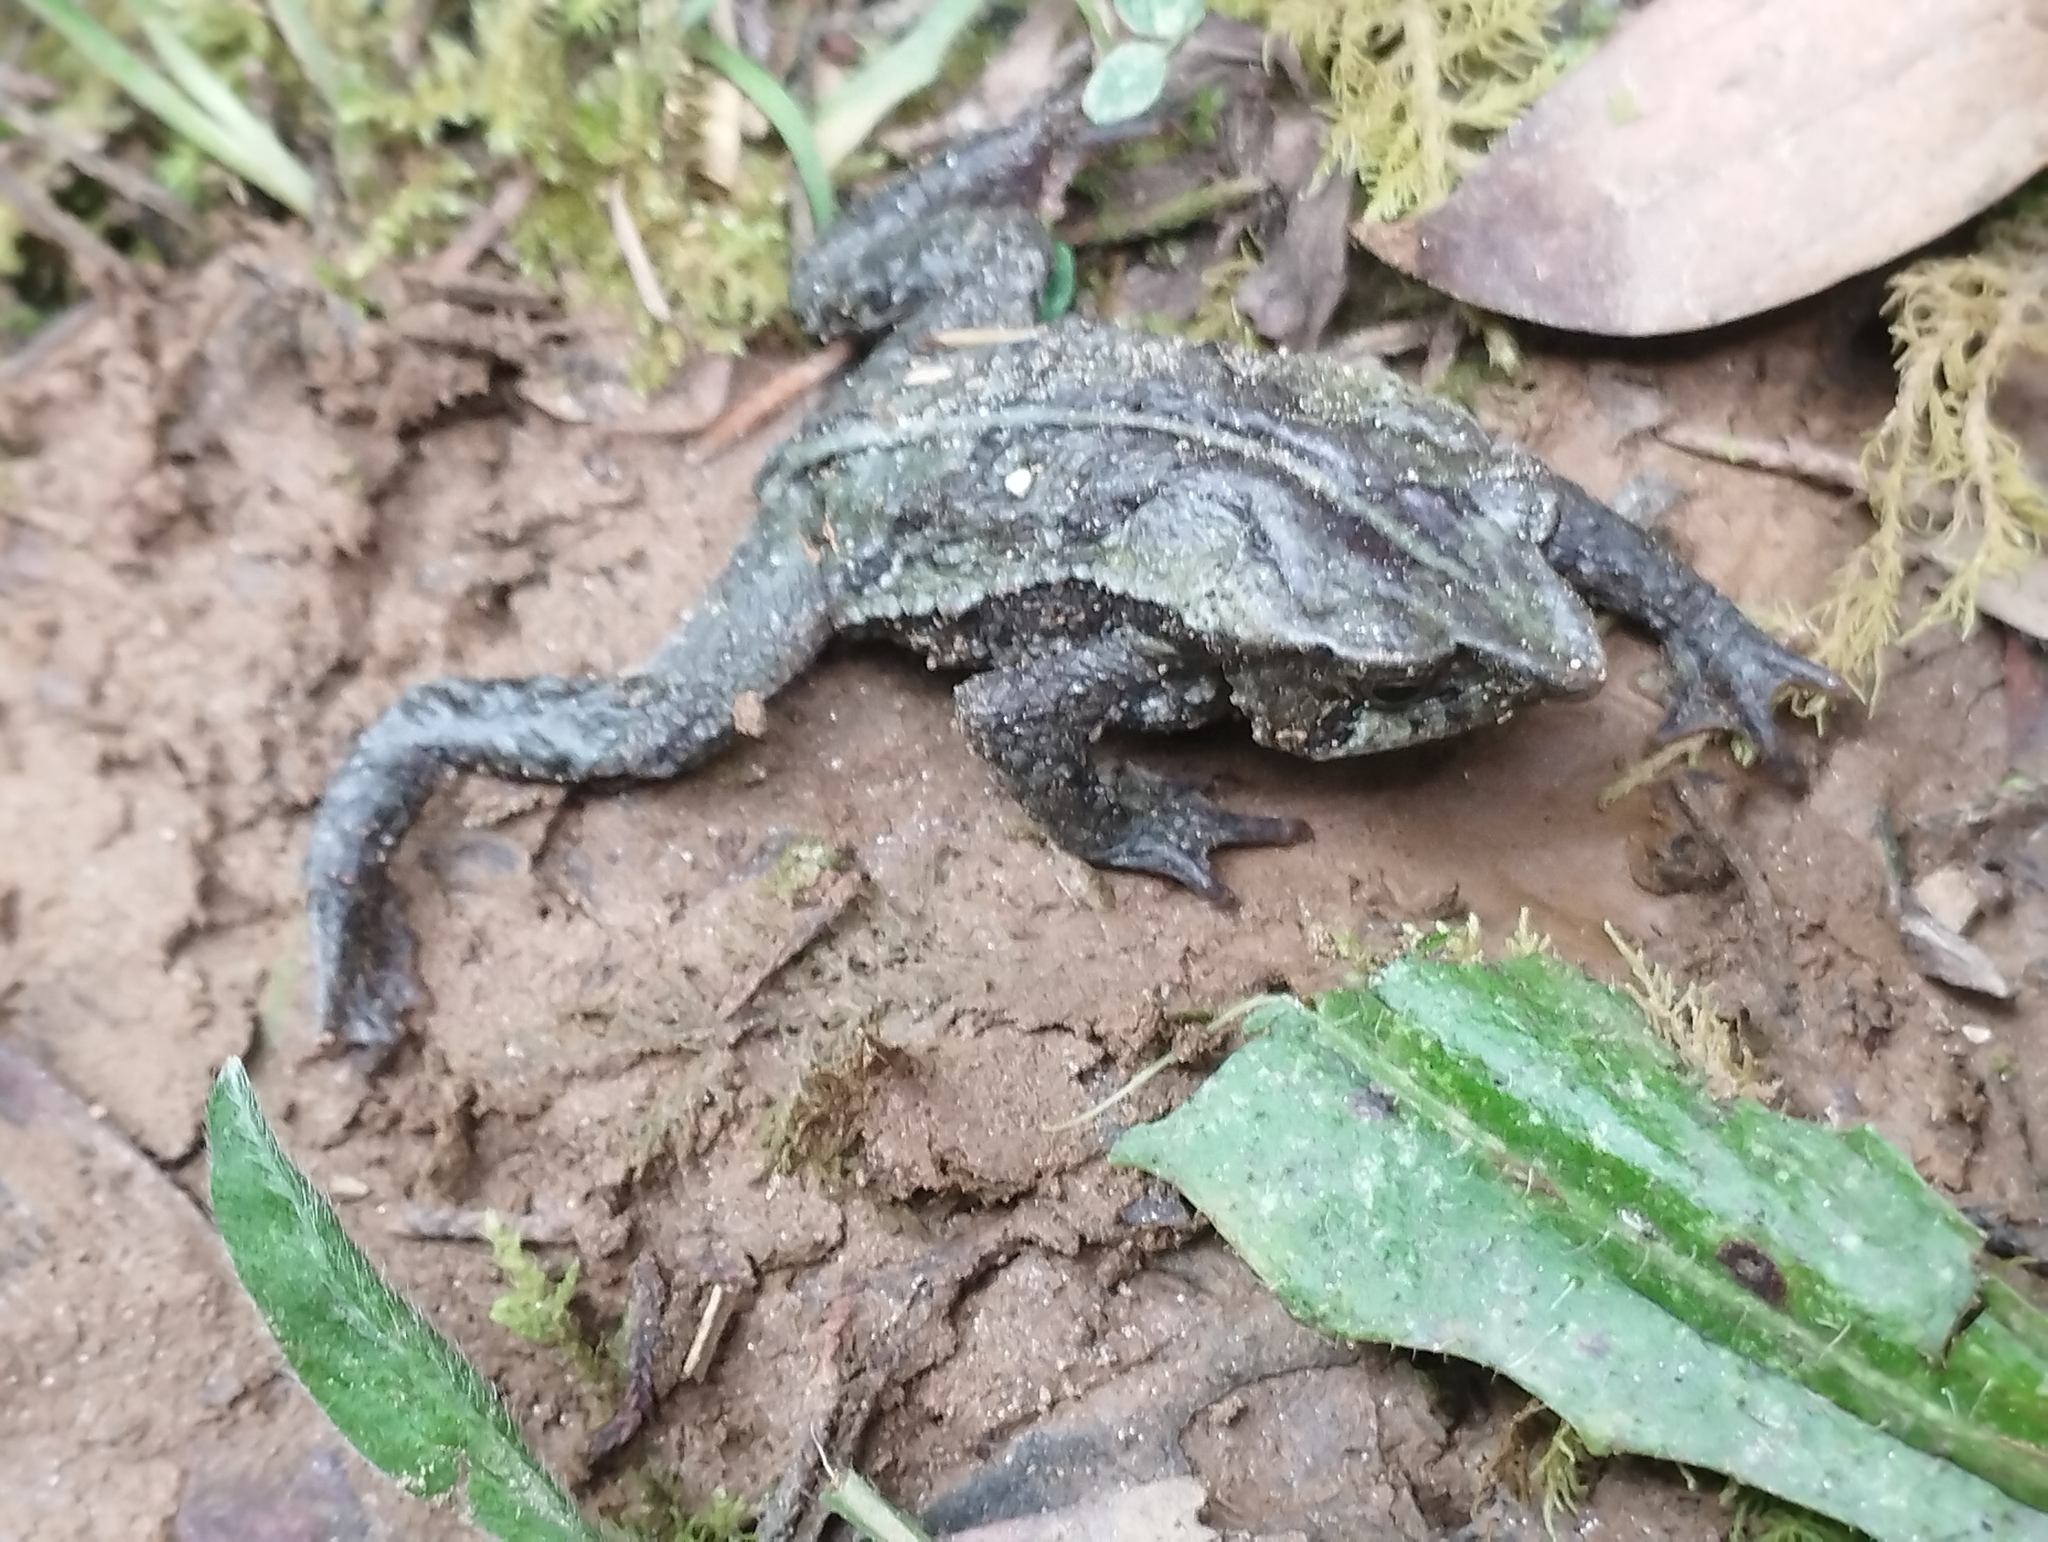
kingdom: Animalia
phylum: Chordata
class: Amphibia
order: Anura
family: Bufonidae
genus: Rhinella
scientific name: Rhinella nicefori
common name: Colombian beaked toad
